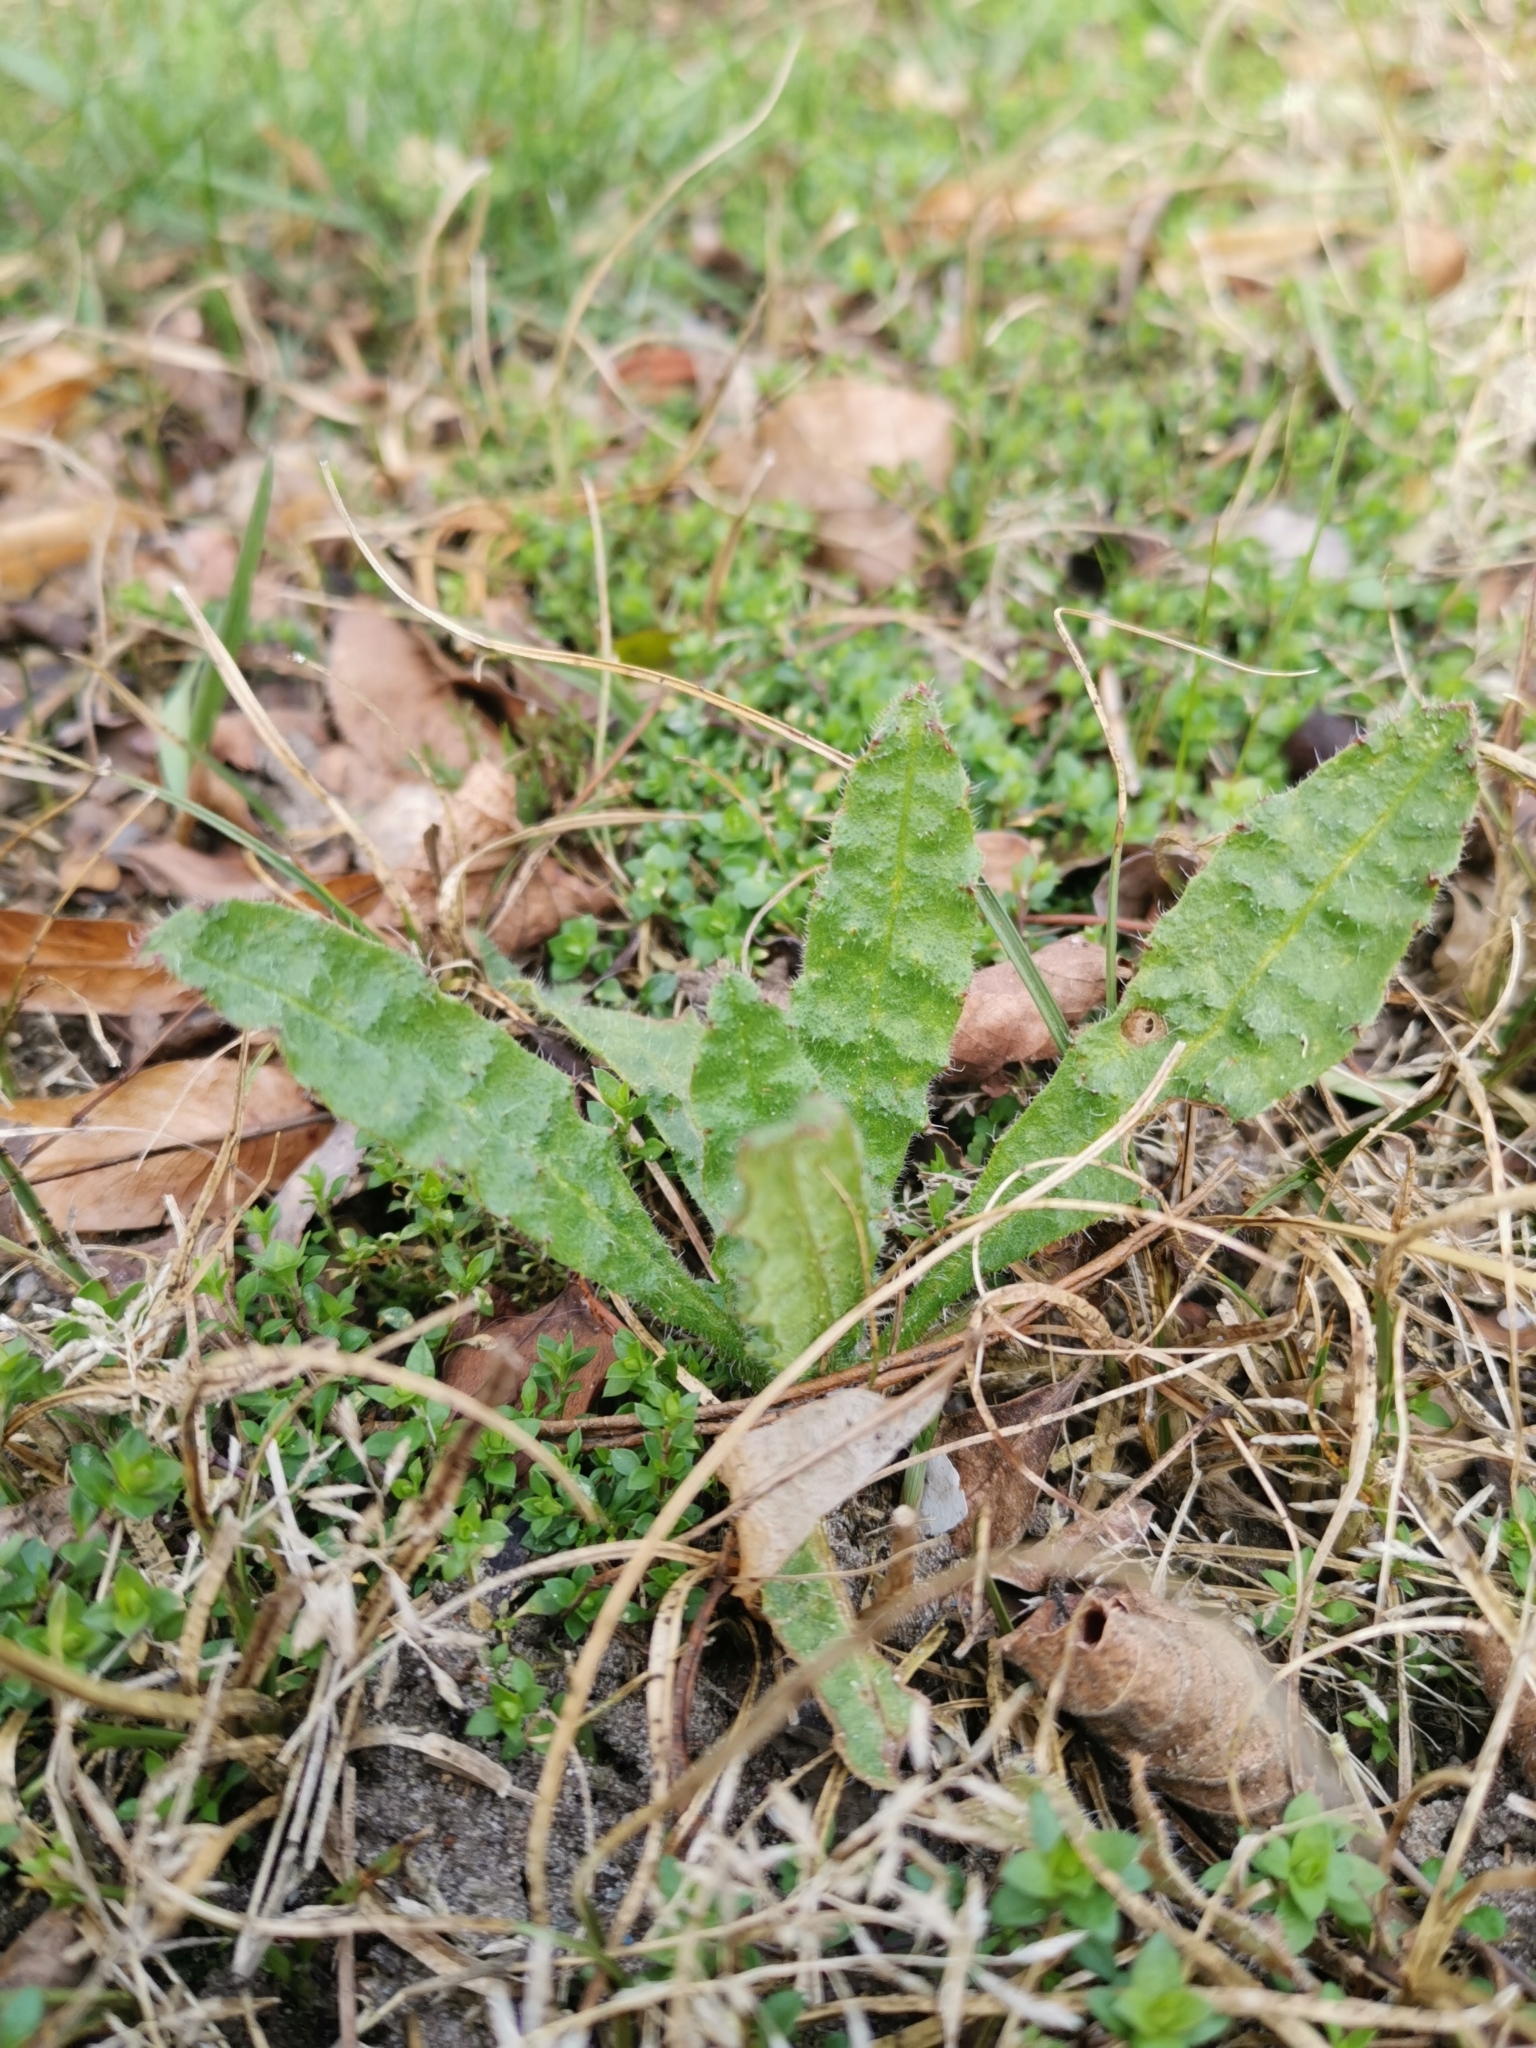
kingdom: Plantae
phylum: Tracheophyta
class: Magnoliopsida
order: Boraginales
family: Boraginaceae
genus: Echium
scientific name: Echium vulgare
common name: Common viper's bugloss
